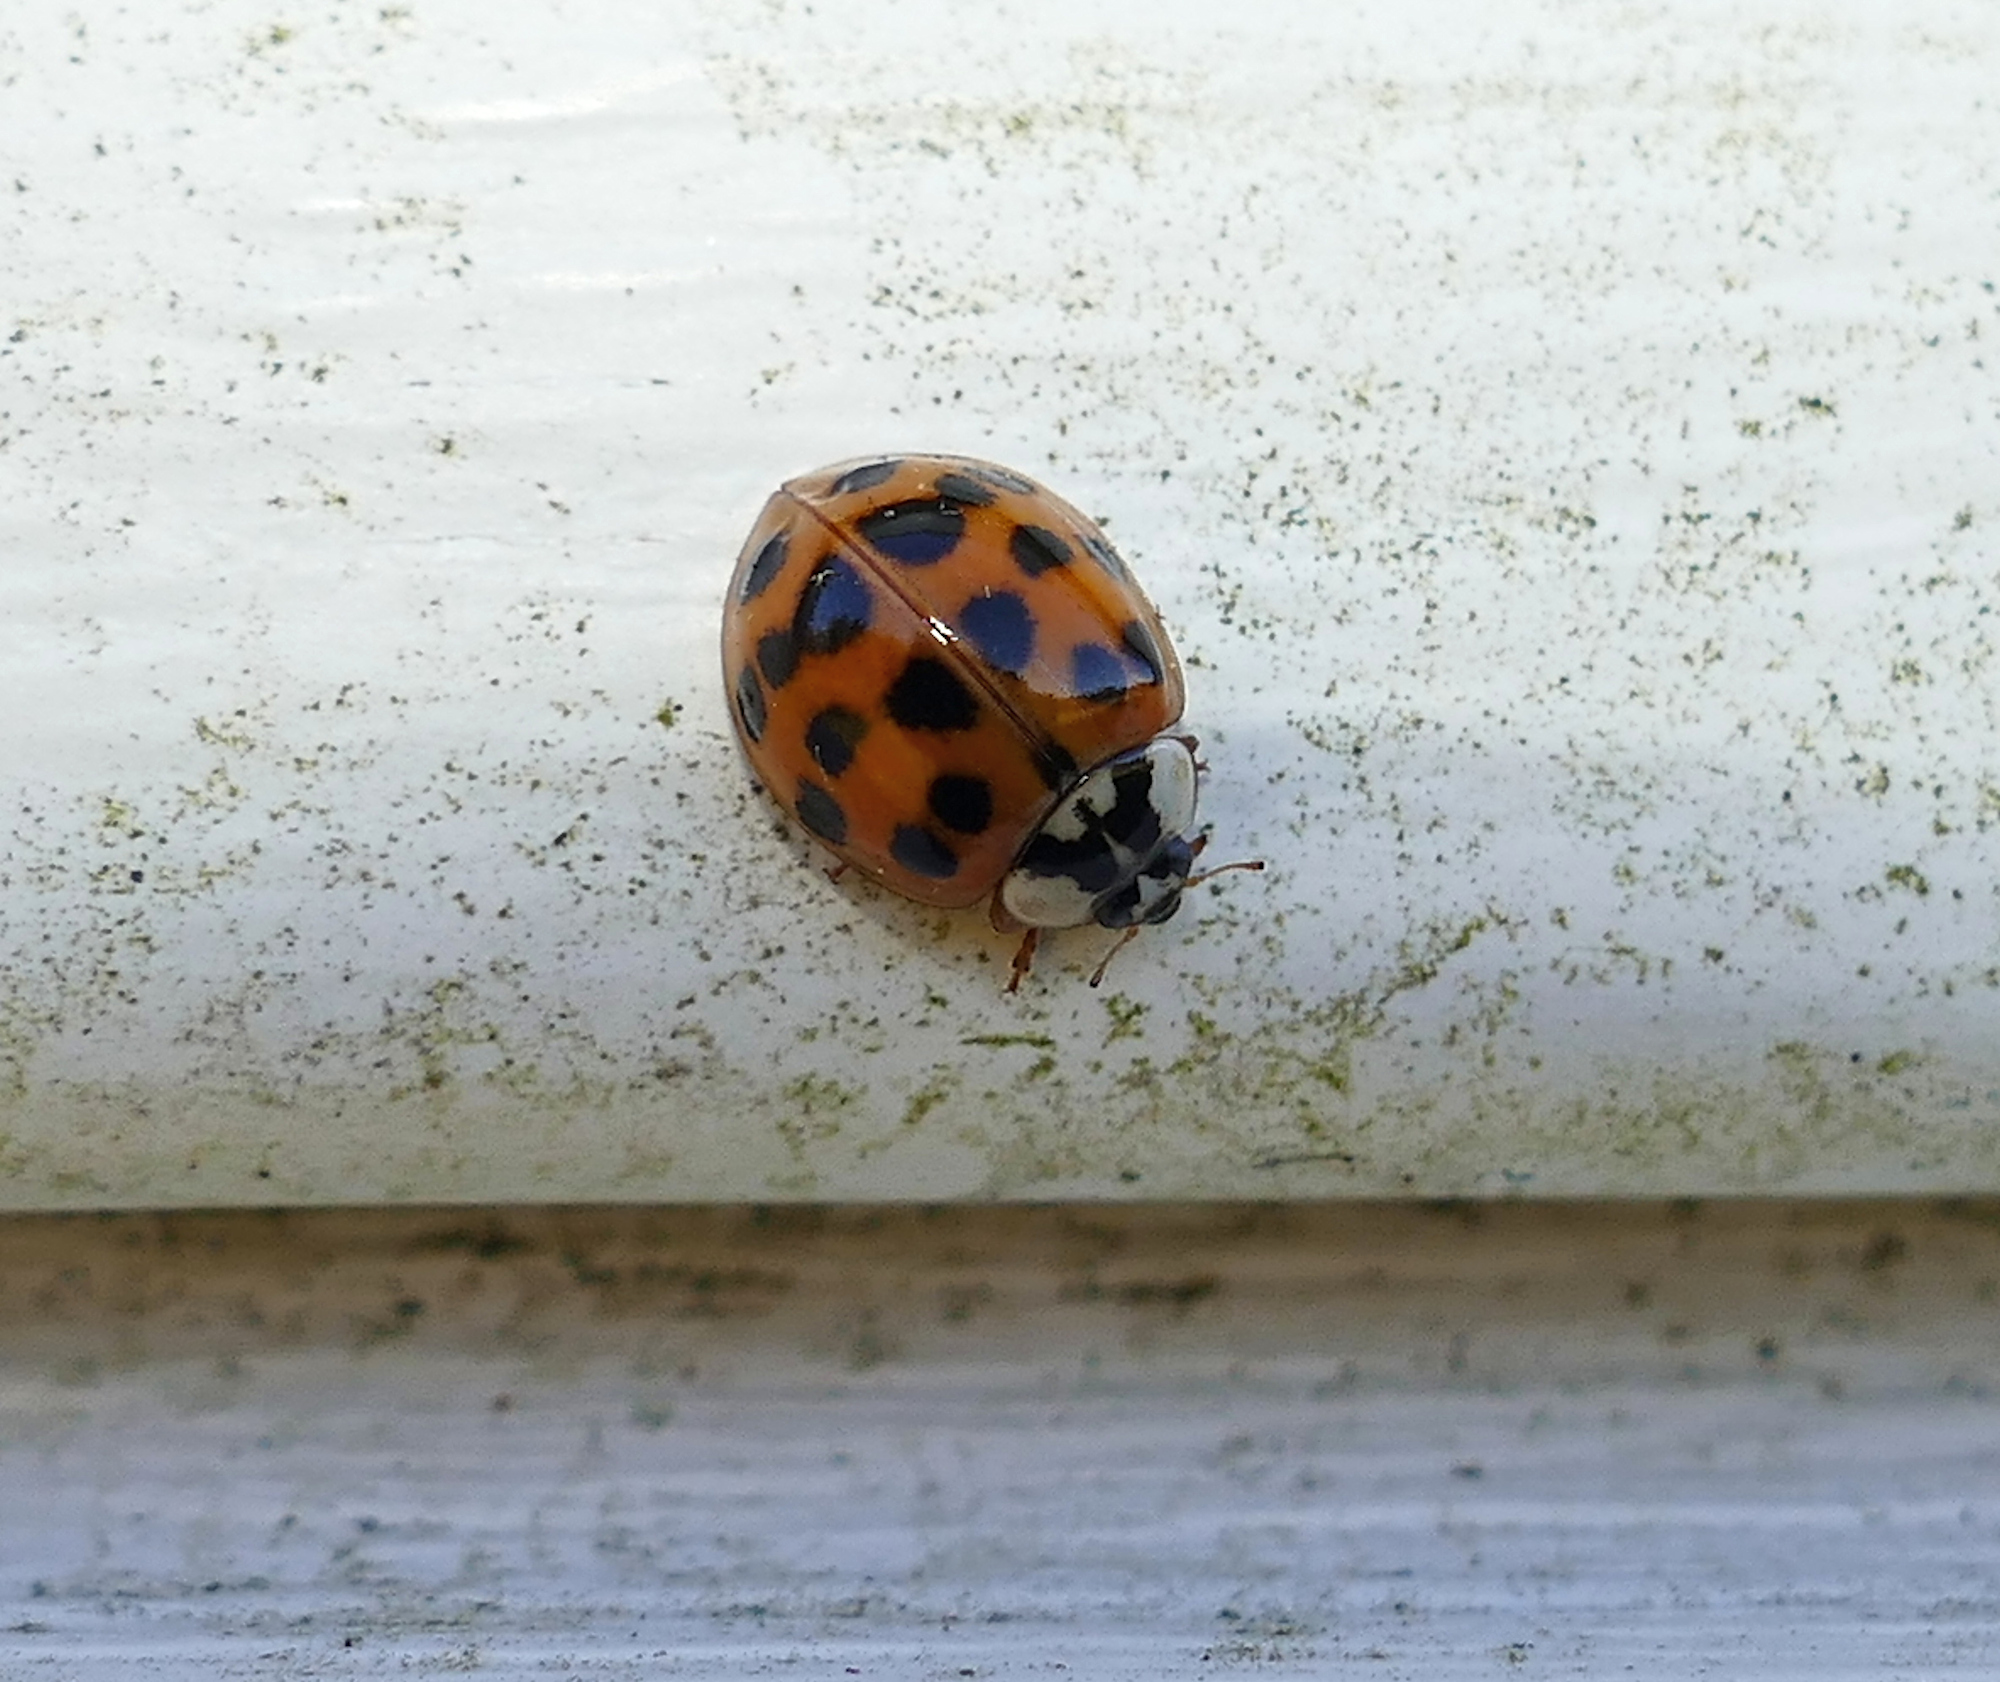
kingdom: Animalia
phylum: Arthropoda
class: Insecta
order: Coleoptera
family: Coccinellidae
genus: Harmonia
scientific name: Harmonia axyridis
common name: Harlequin ladybird
